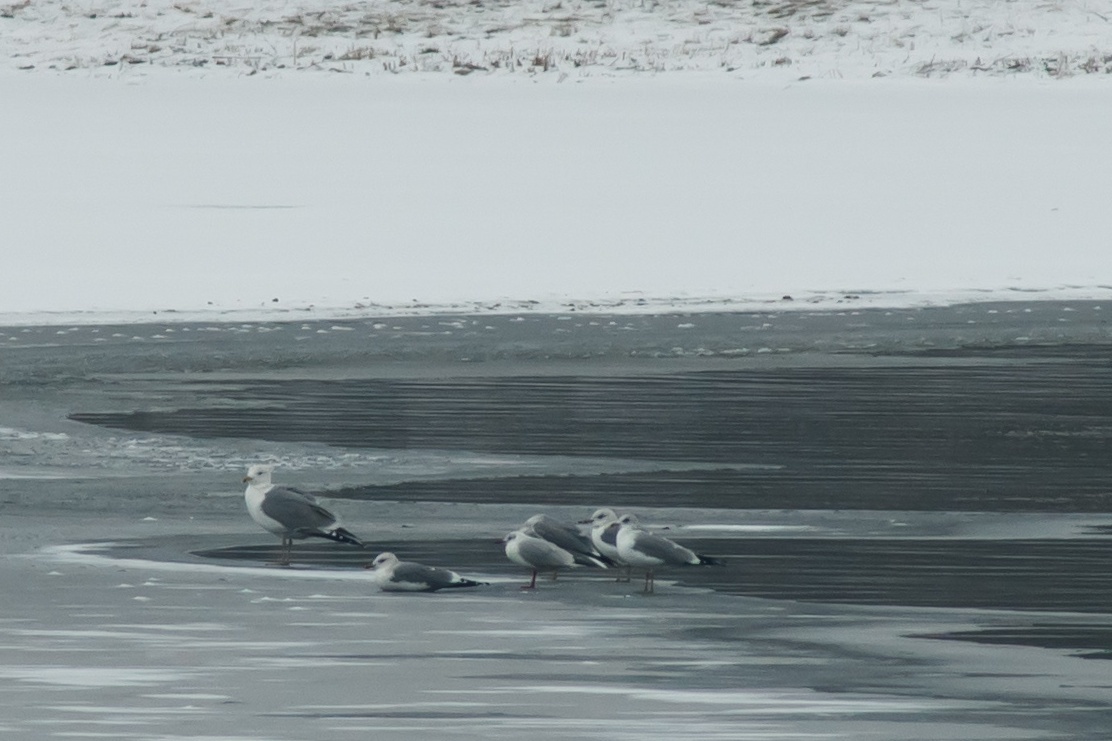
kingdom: Animalia
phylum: Chordata
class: Aves
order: Charadriiformes
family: Laridae
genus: Larus
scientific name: Larus canus
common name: Mew gull
